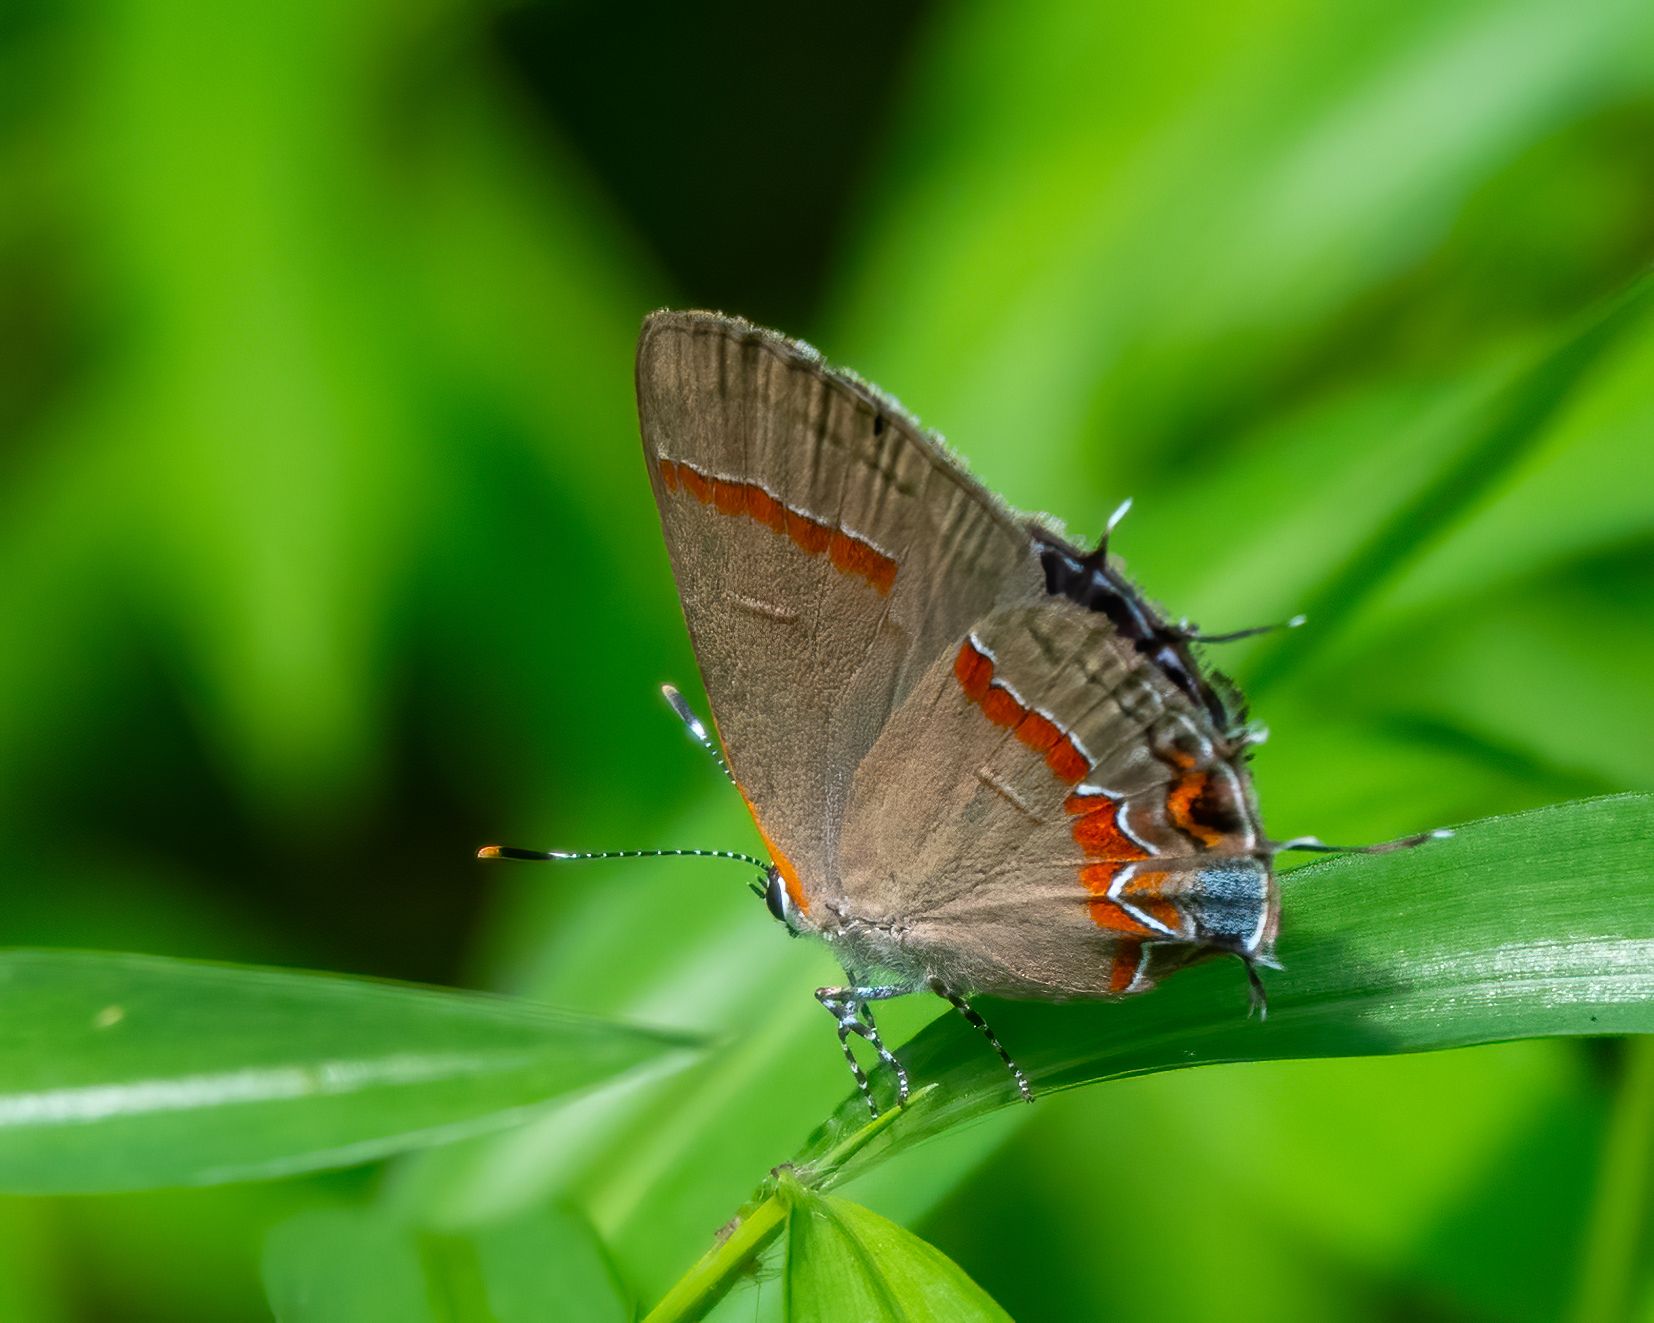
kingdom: Animalia
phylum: Arthropoda
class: Insecta
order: Lepidoptera
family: Lycaenidae
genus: Calycopis
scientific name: Calycopis cecrops
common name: Red-banded hairstreak
